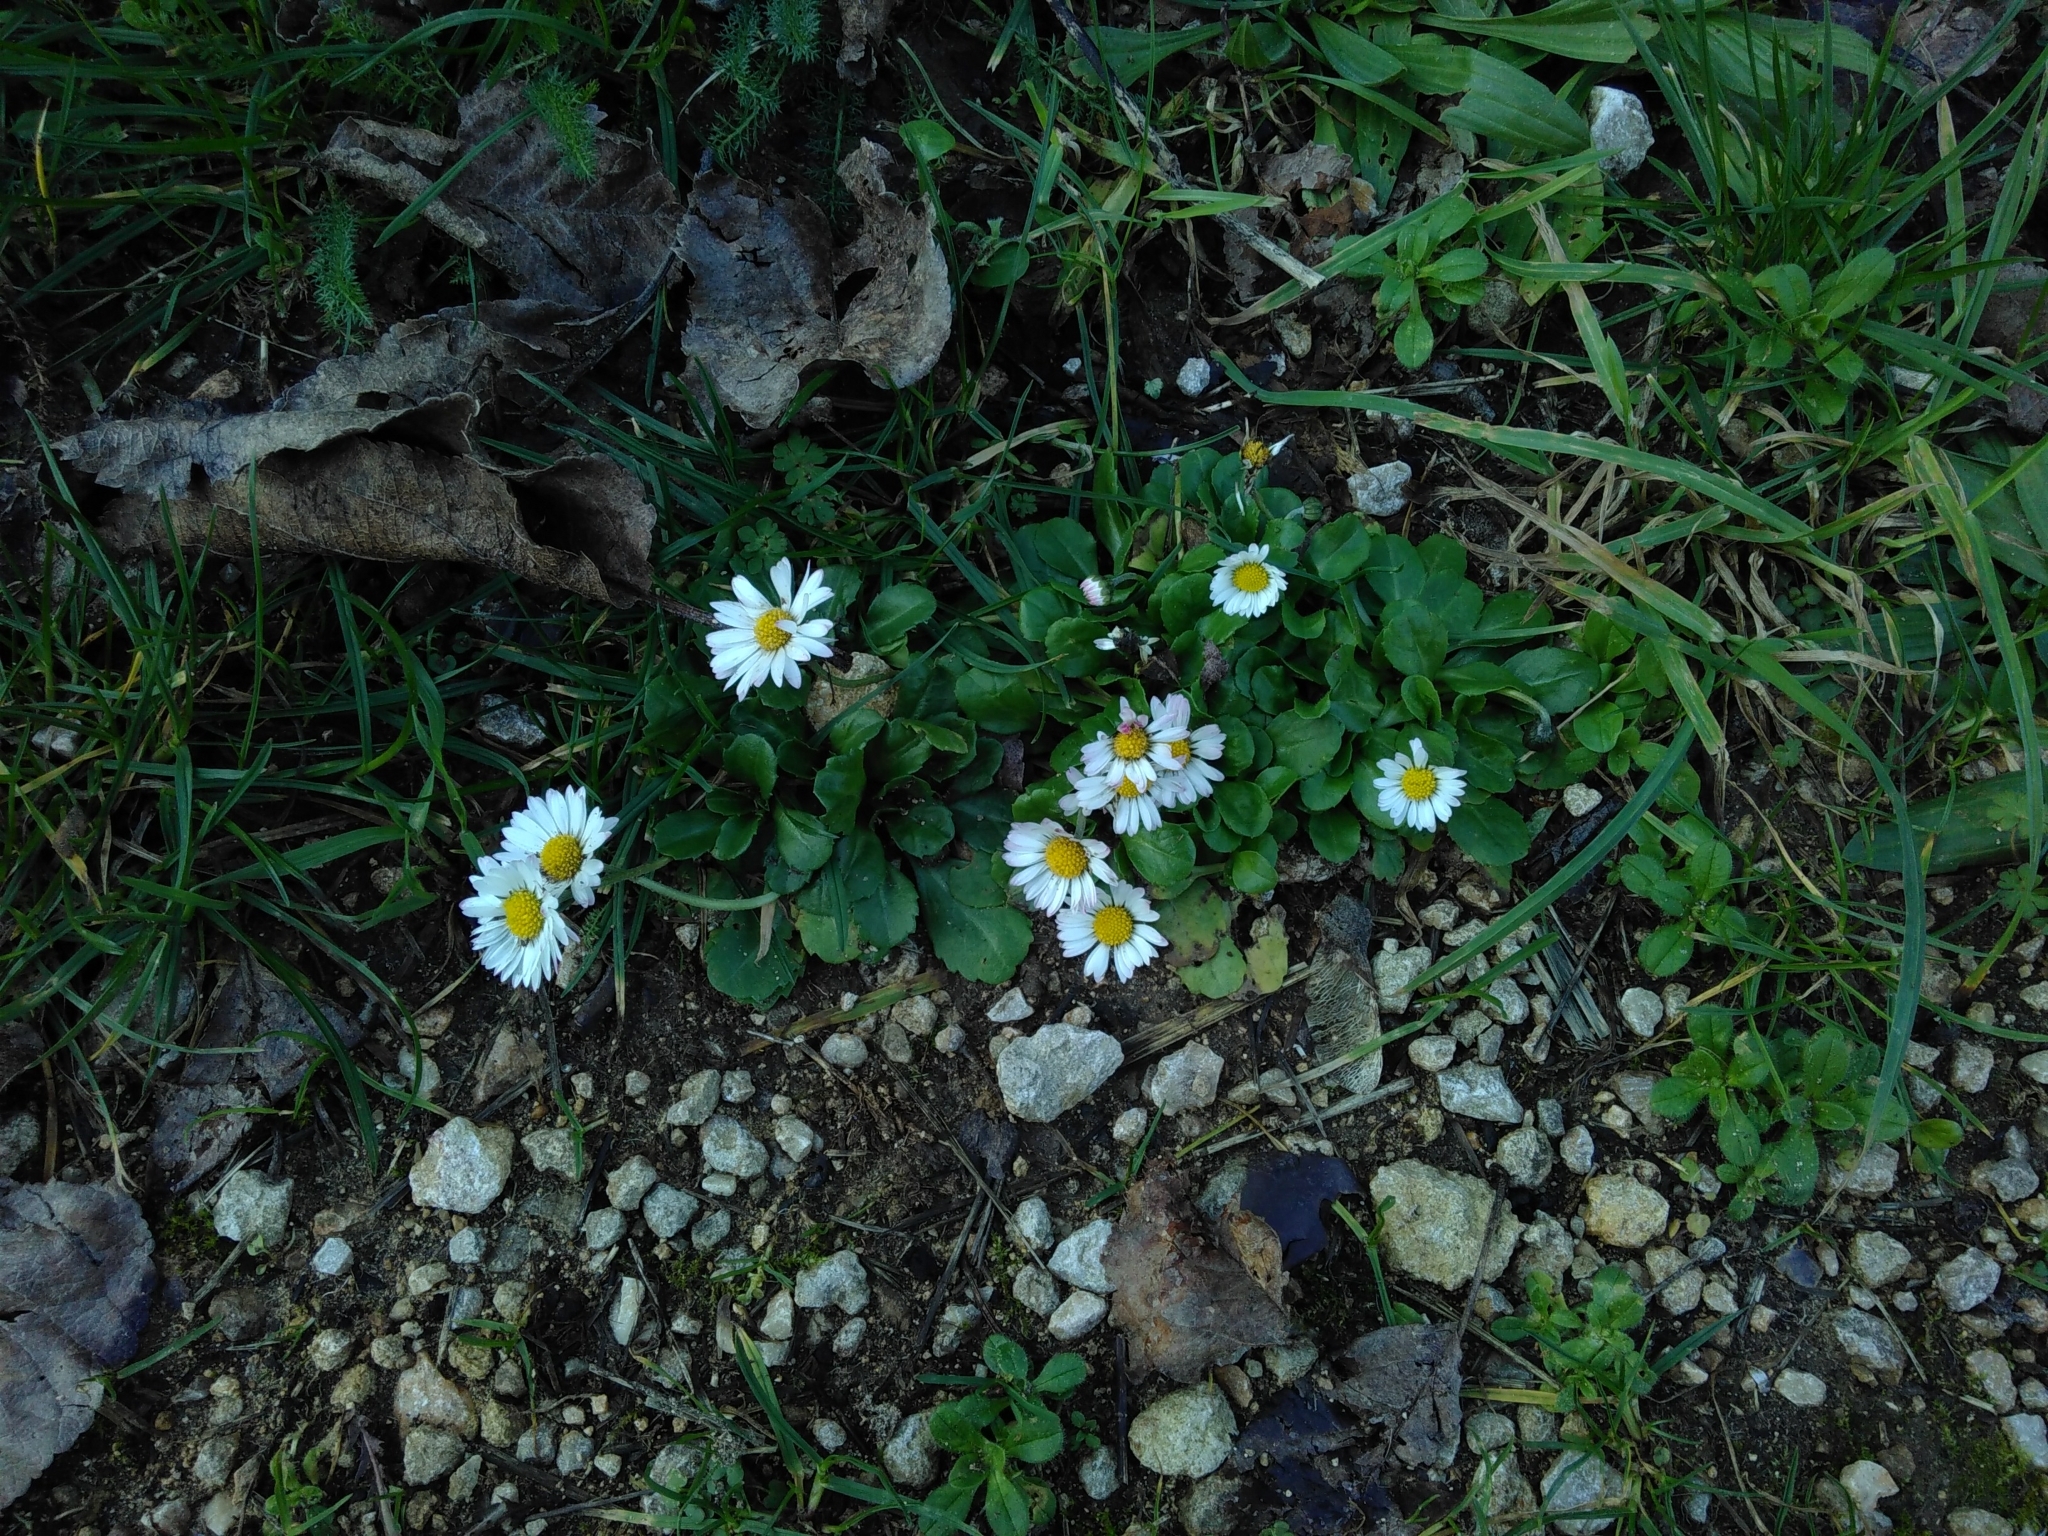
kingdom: Plantae
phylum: Tracheophyta
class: Magnoliopsida
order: Asterales
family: Asteraceae
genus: Bellis
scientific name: Bellis perennis
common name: Lawndaisy
